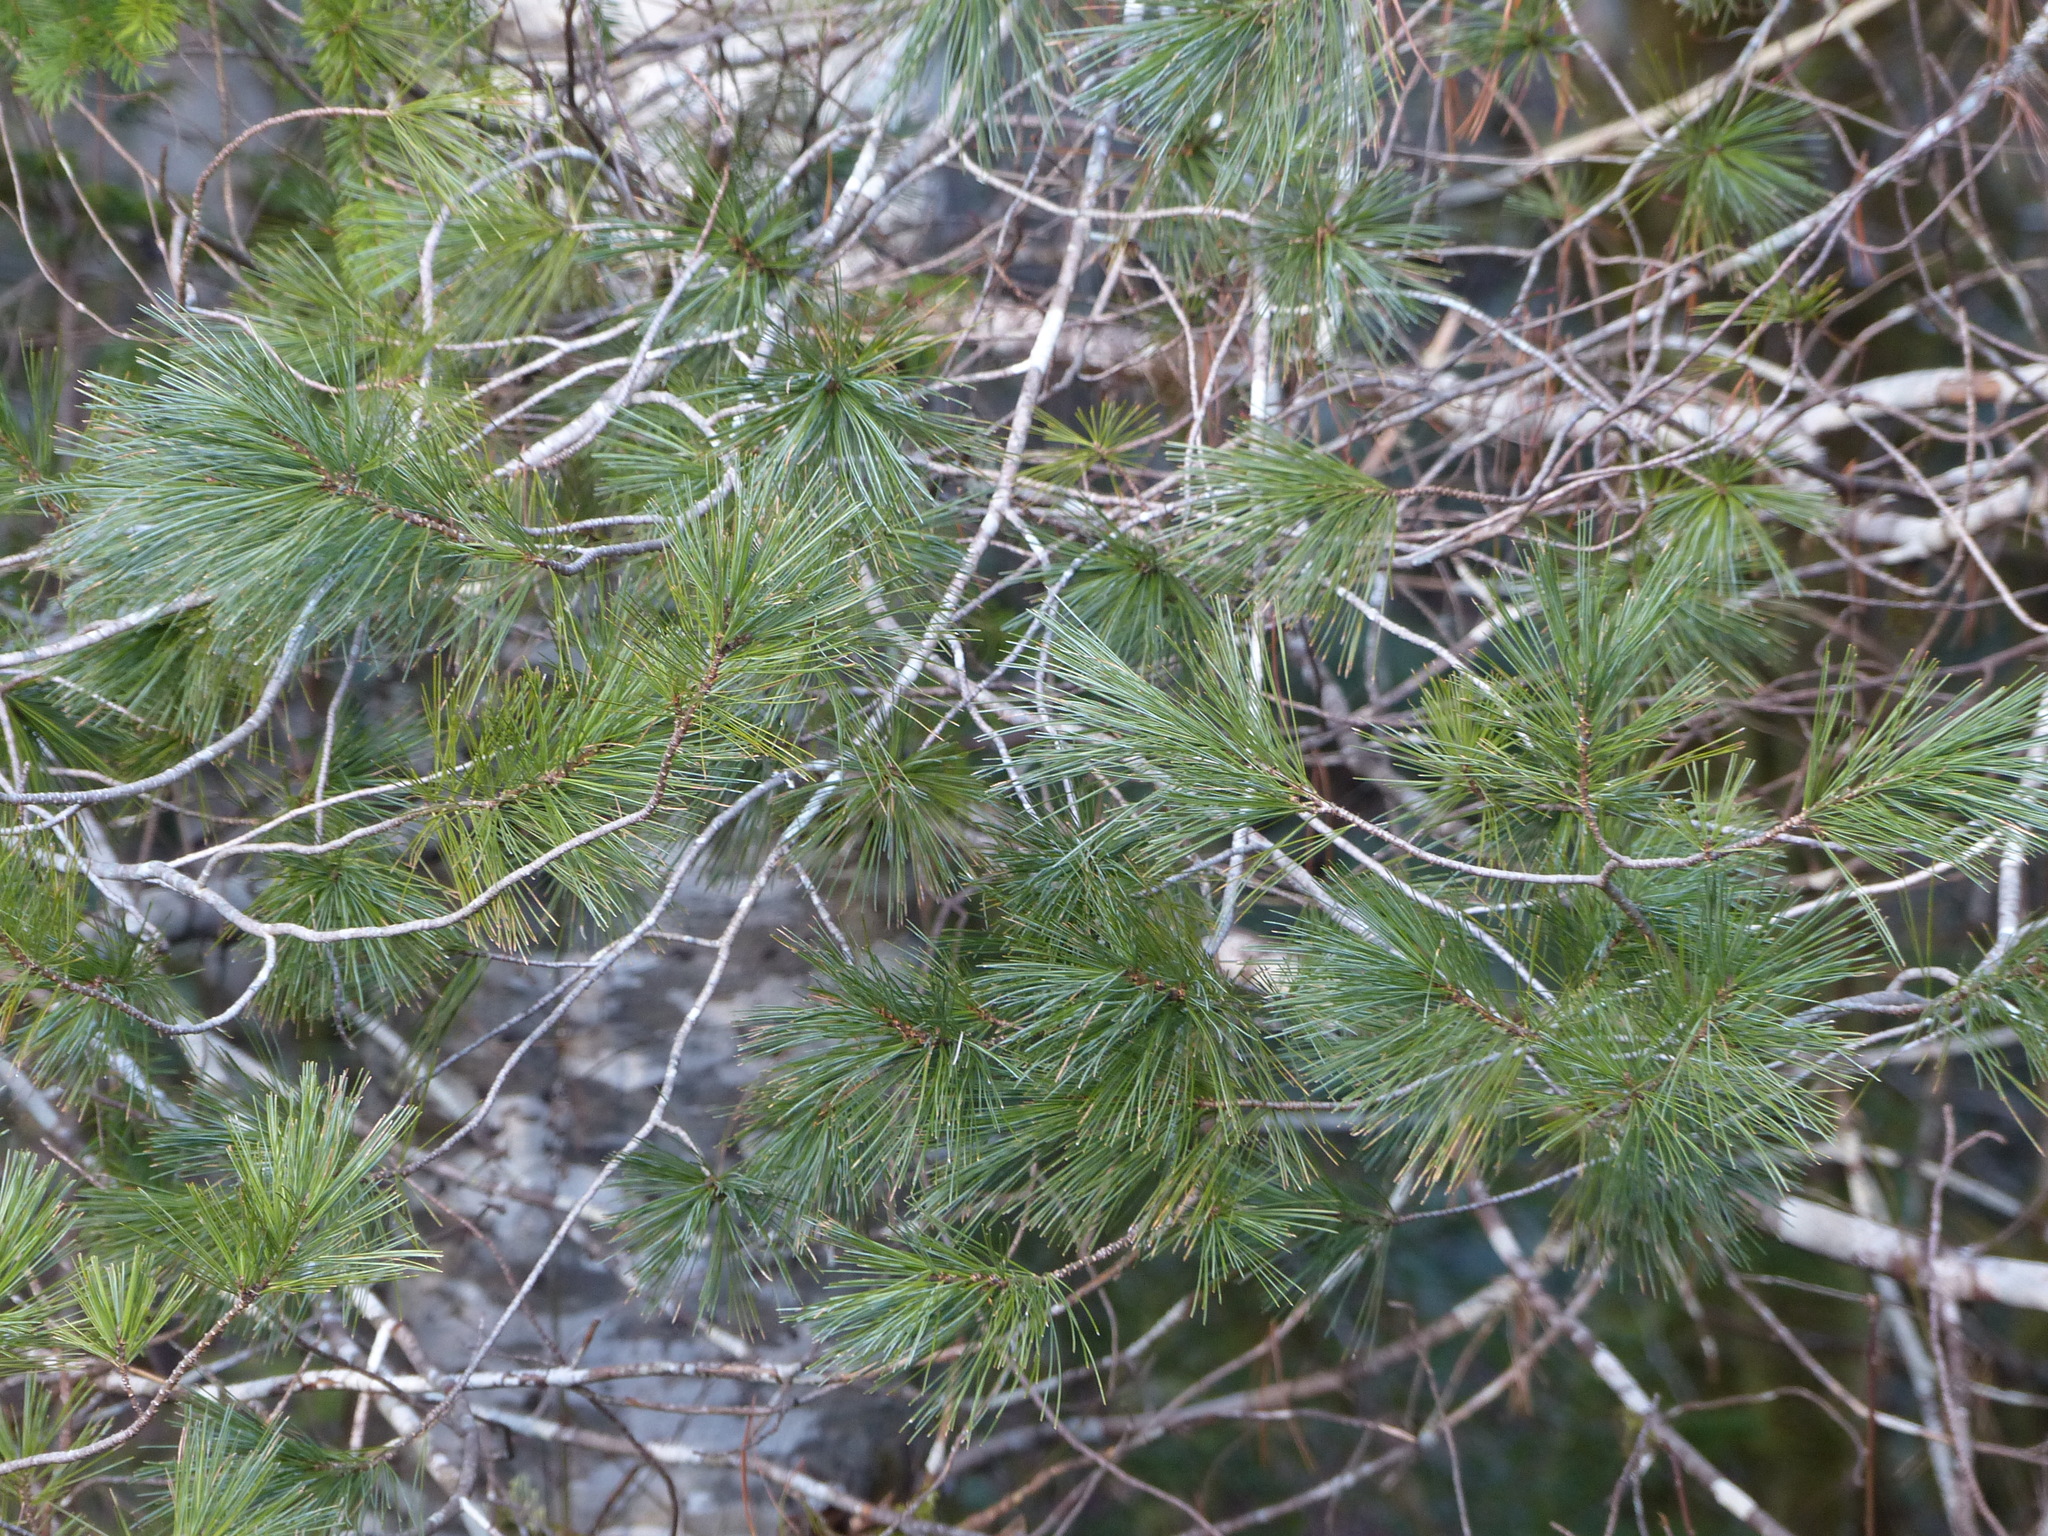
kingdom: Plantae
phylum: Tracheophyta
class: Pinopsida
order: Pinales
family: Pinaceae
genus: Pinus
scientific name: Pinus monticola
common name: Western white pine
